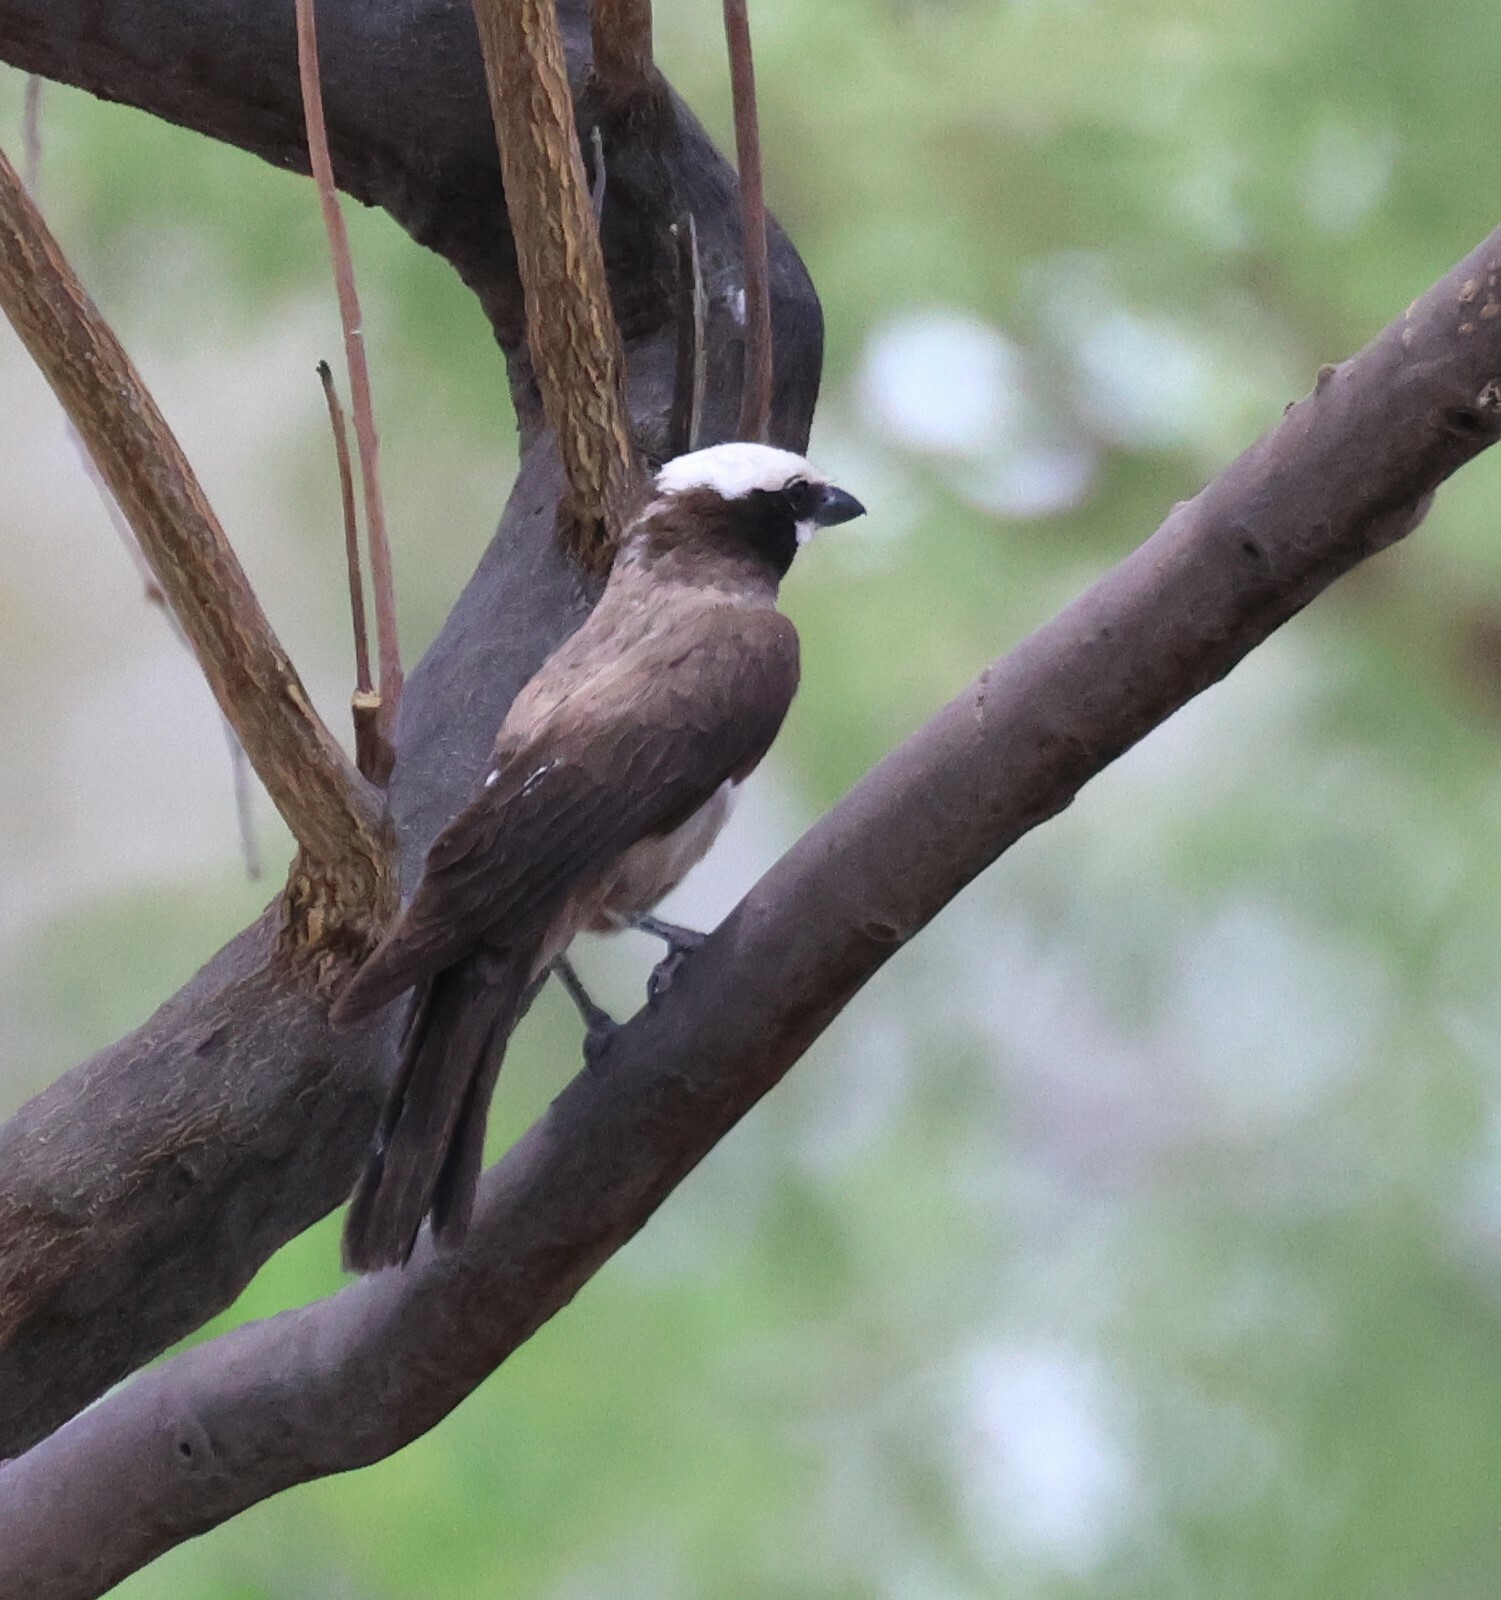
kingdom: Animalia
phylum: Chordata
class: Aves
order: Passeriformes
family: Laniidae
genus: Eurocephalus
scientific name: Eurocephalus anguitimens
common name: Southern white-crowned shrike
